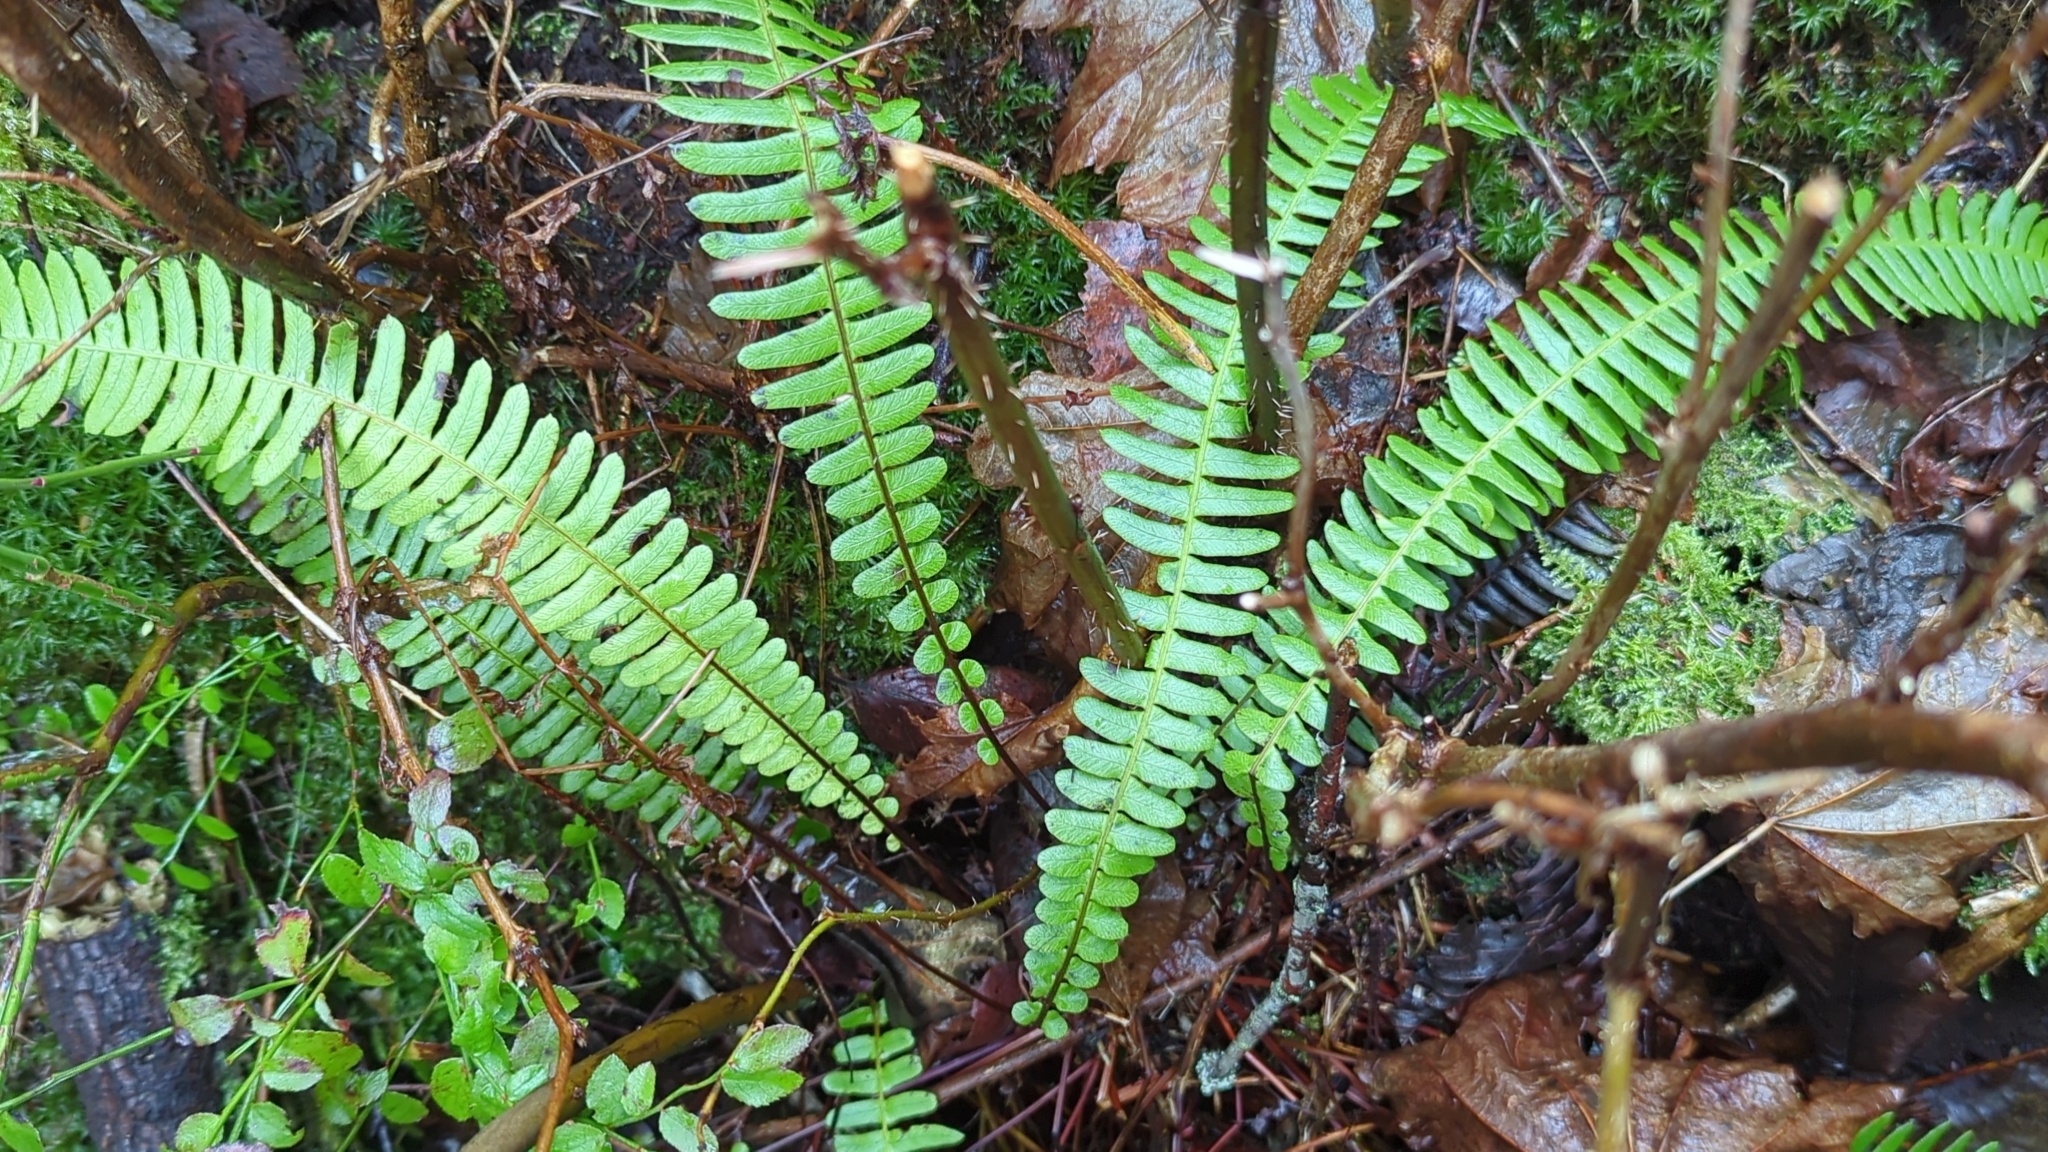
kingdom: Plantae
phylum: Tracheophyta
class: Polypodiopsida
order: Polypodiales
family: Blechnaceae
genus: Struthiopteris
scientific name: Struthiopteris spicant
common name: Deer fern
